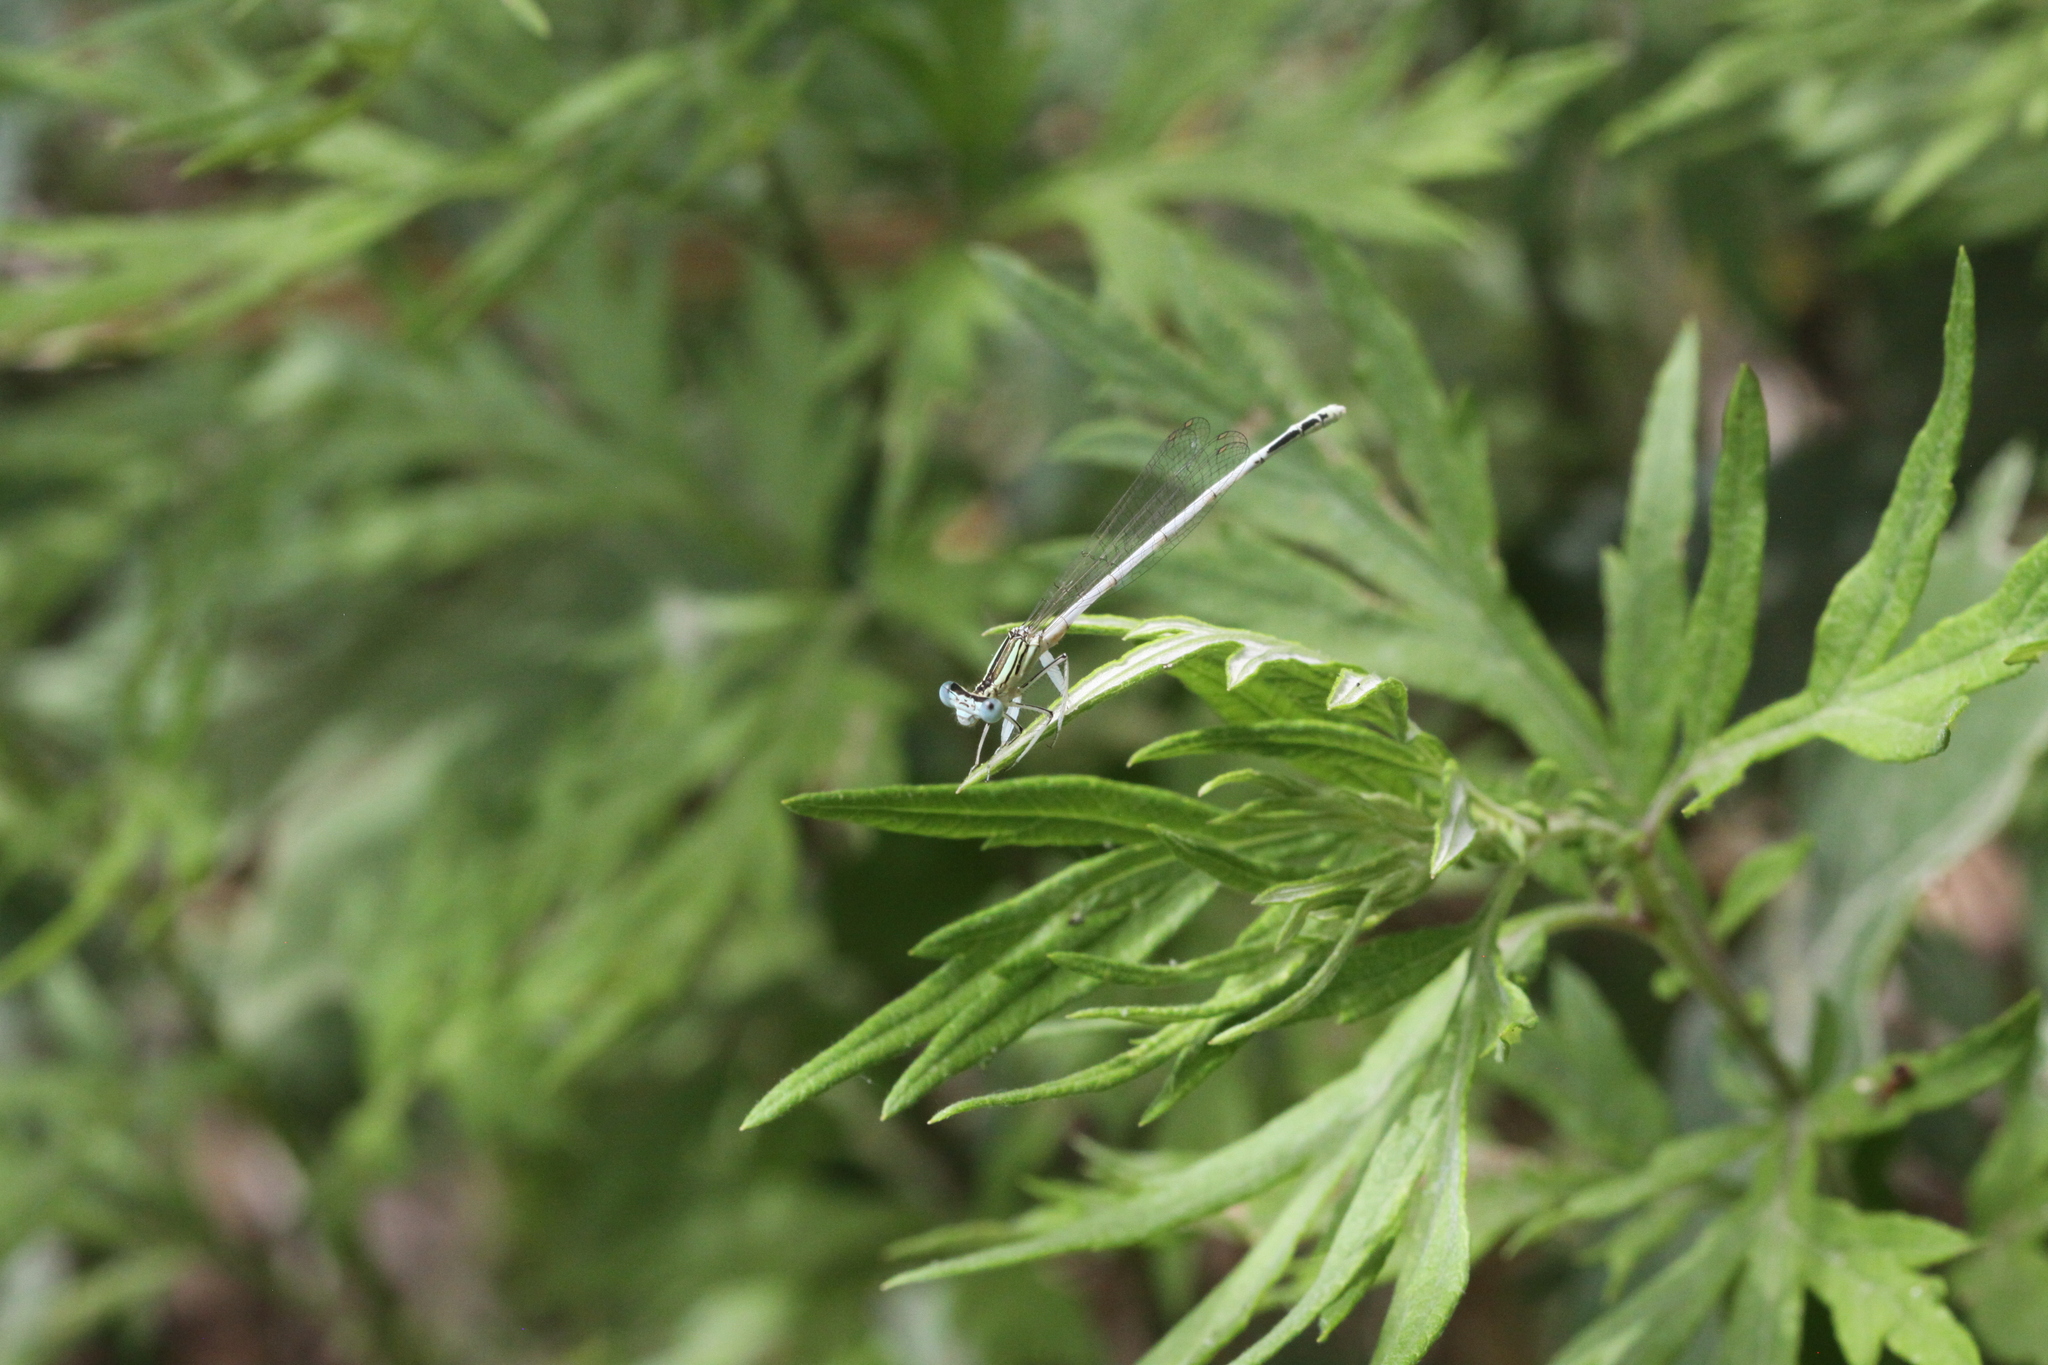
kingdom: Animalia
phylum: Arthropoda
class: Insecta
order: Odonata
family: Platycnemididae
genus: Platycnemis
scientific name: Platycnemis latipes
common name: White featherleg
